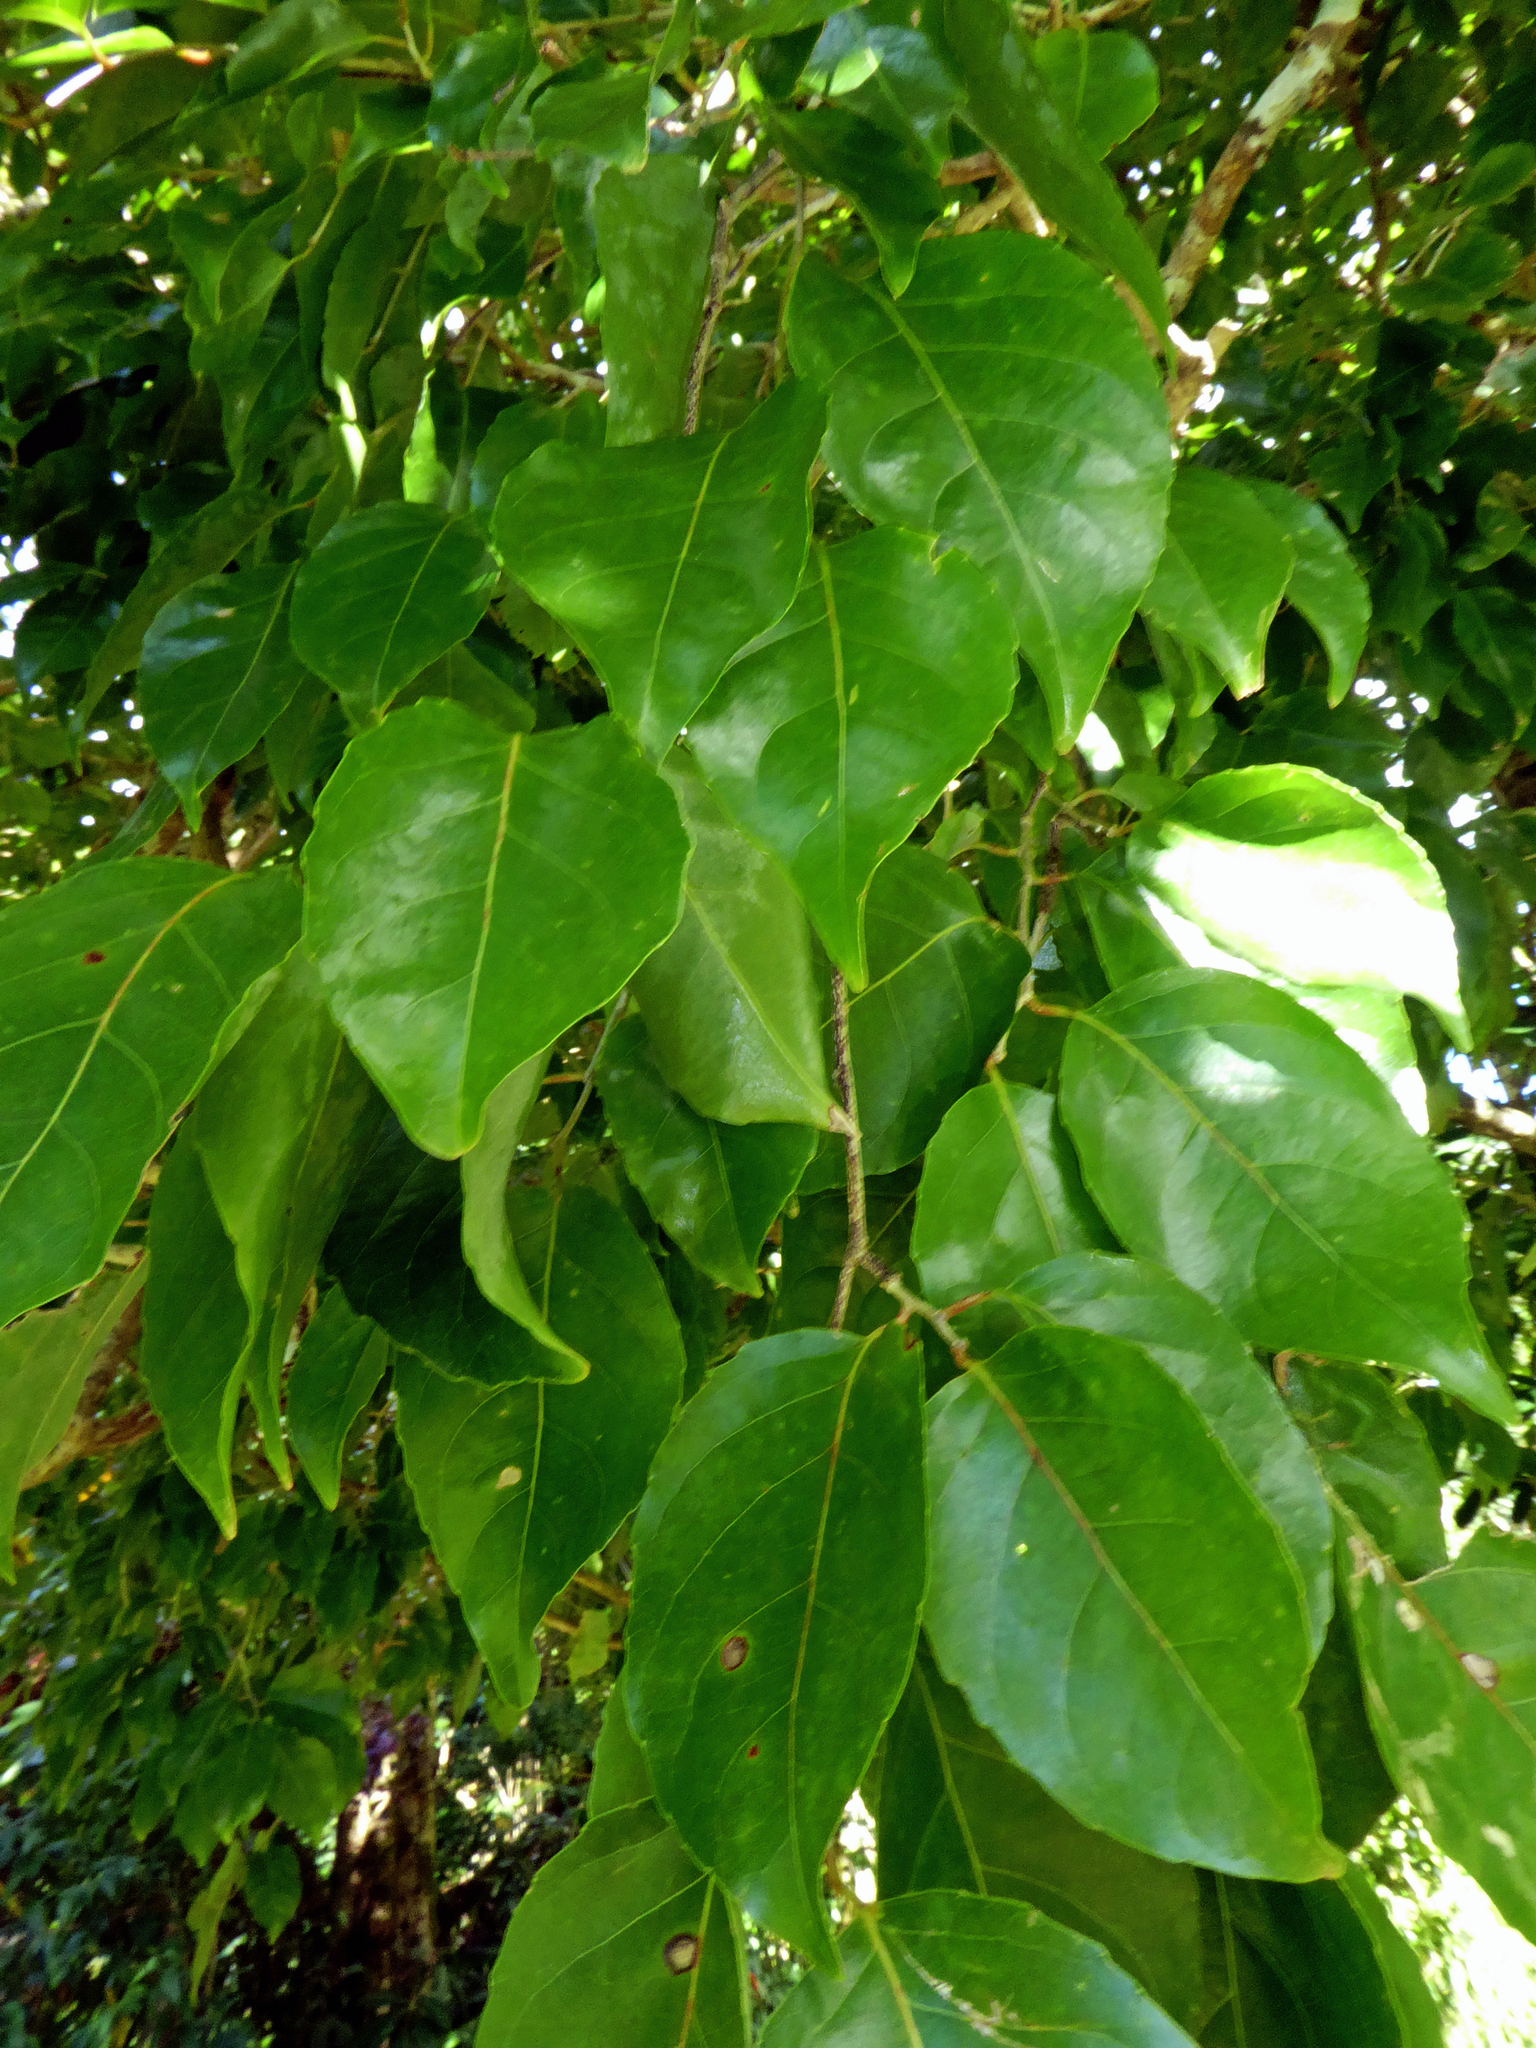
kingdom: Plantae
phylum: Tracheophyta
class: Magnoliopsida
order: Malpighiales
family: Salicaceae
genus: Homalium
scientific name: Homalium acuminatum
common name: Rarotonga homalium
